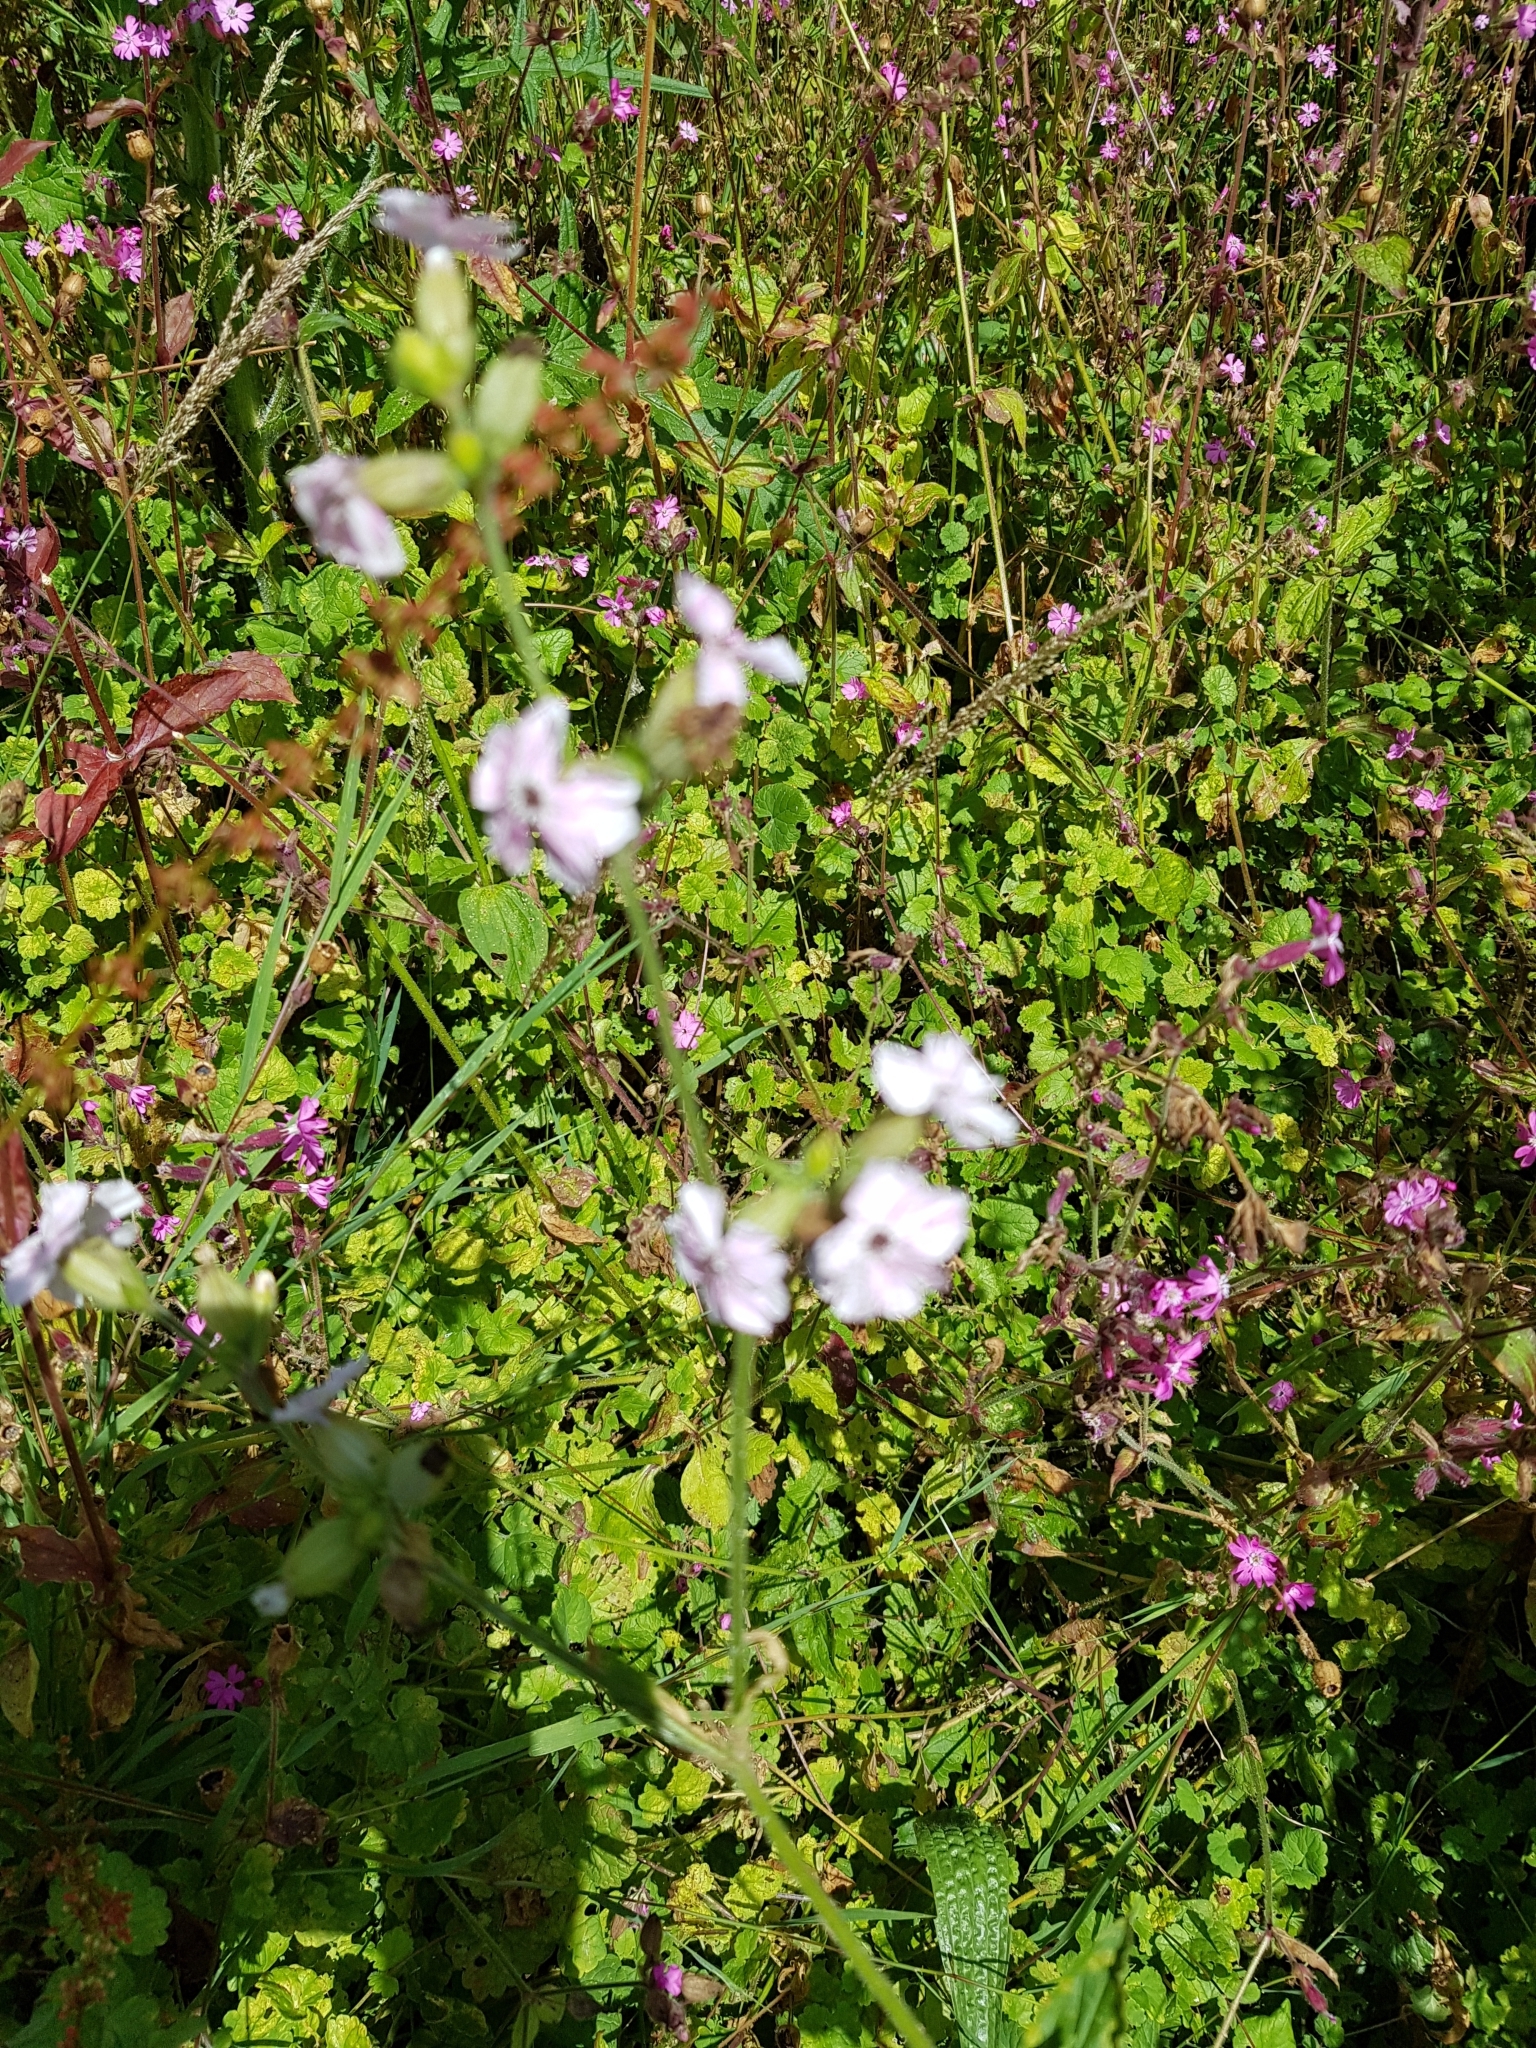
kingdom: Plantae
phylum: Tracheophyta
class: Magnoliopsida
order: Caryophyllales
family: Caryophyllaceae
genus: Silene
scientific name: Silene latifolia
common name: White campion
